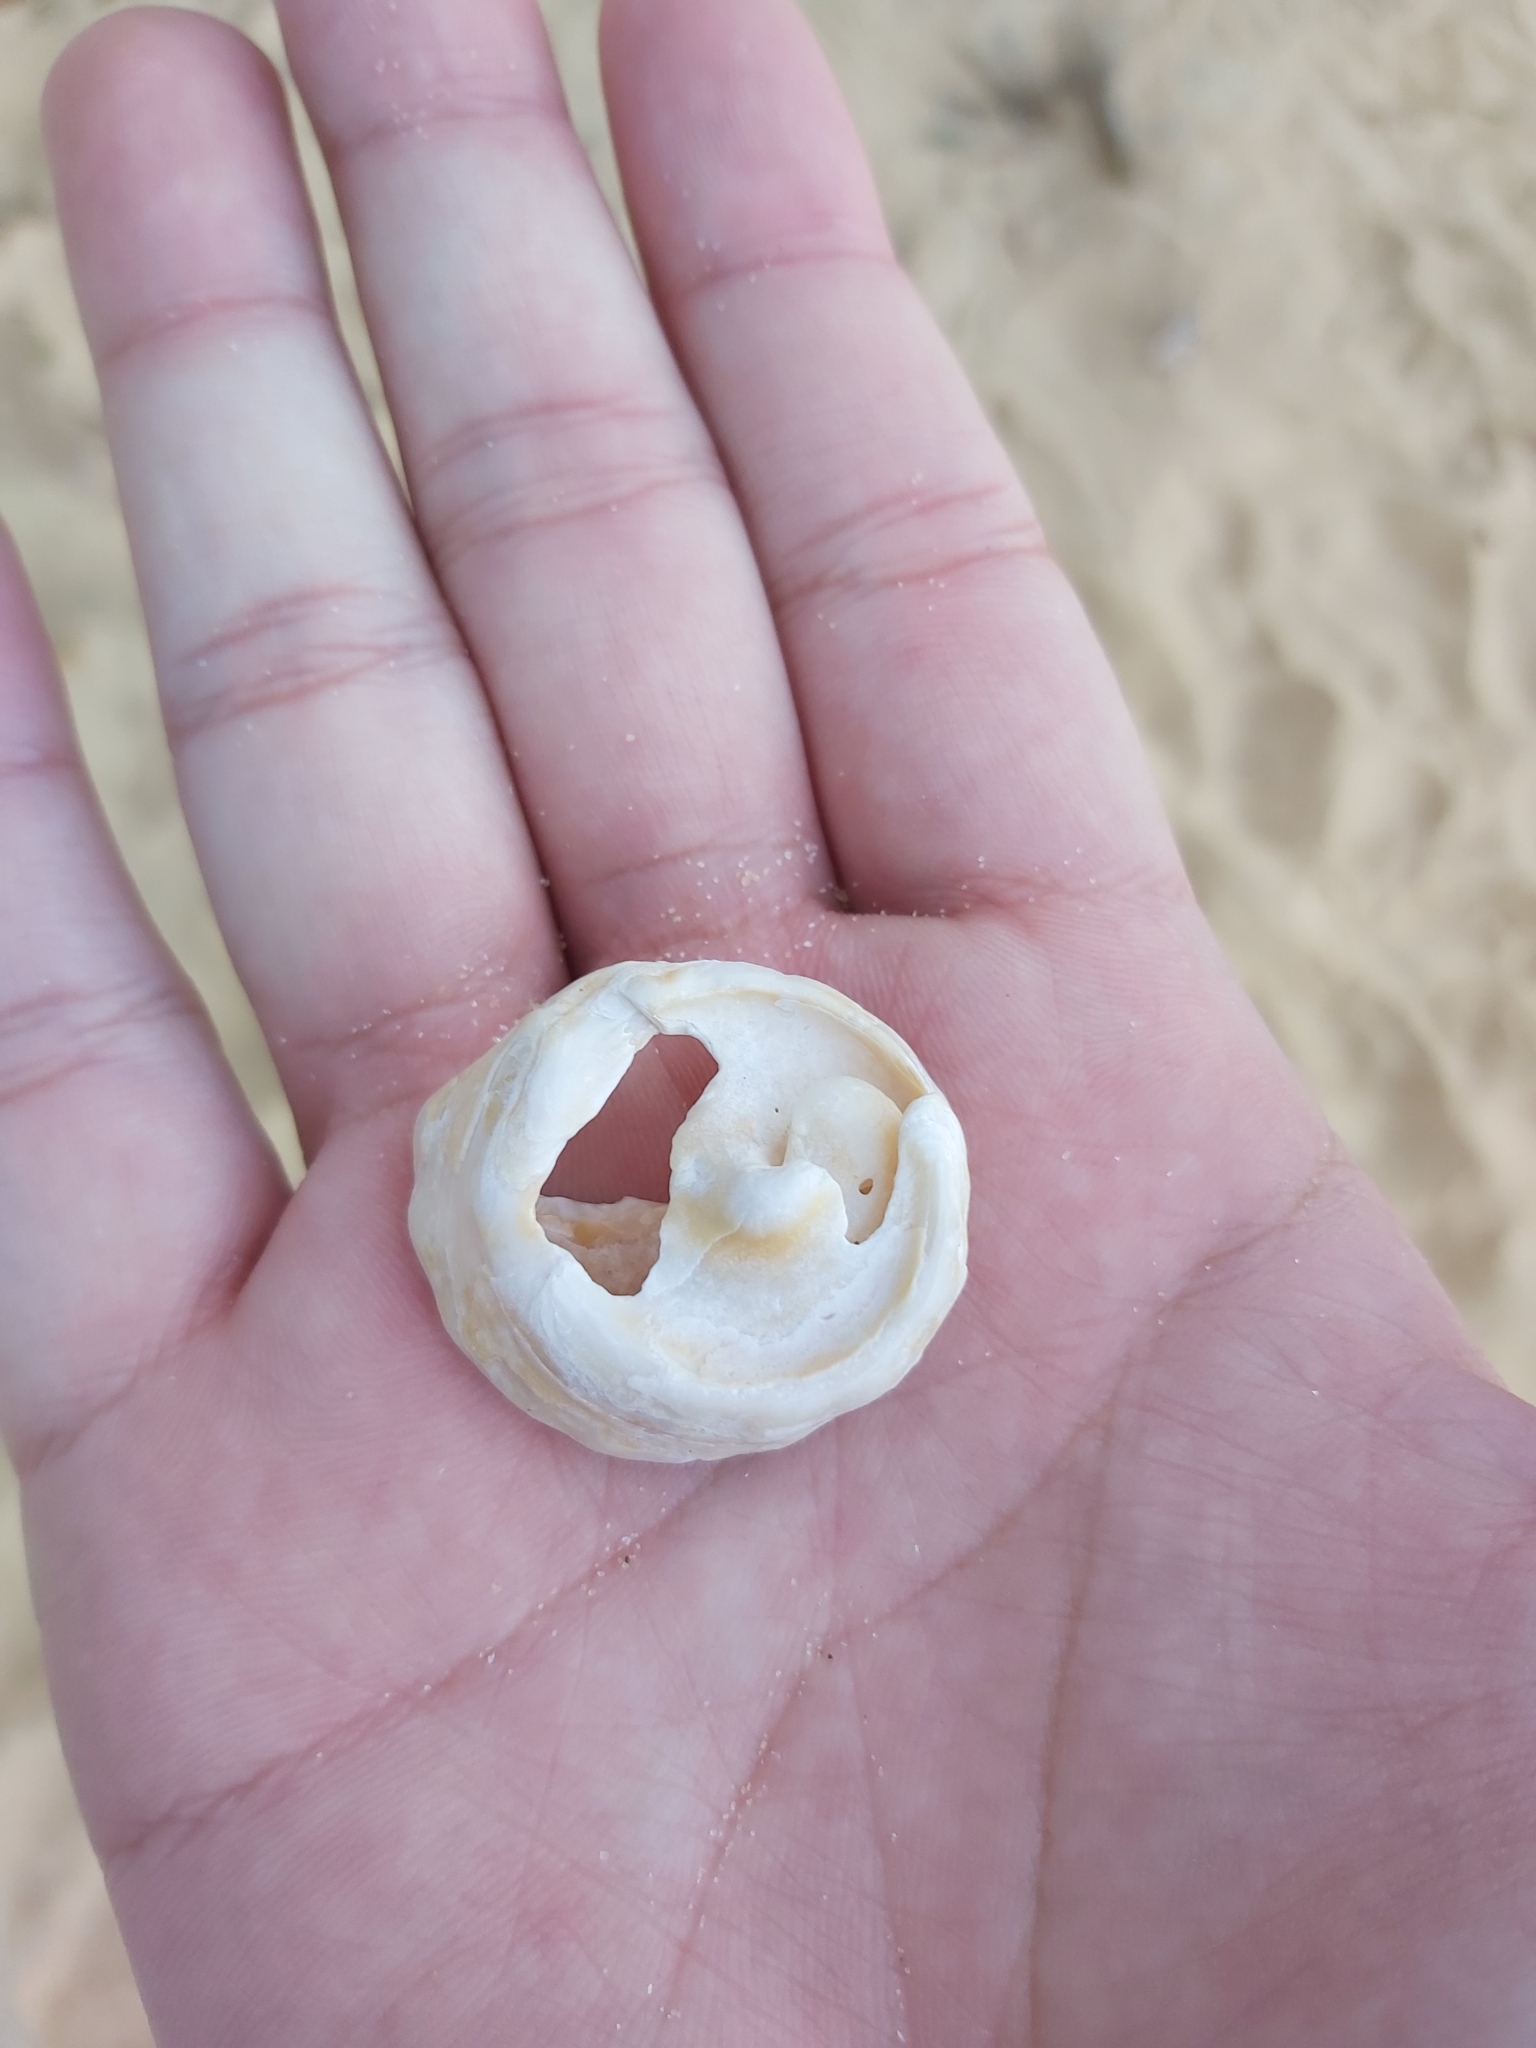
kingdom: Animalia
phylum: Mollusca
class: Gastropoda
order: Trochida
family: Turbinidae
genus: Astralium
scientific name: Astralium tentoriiforme
